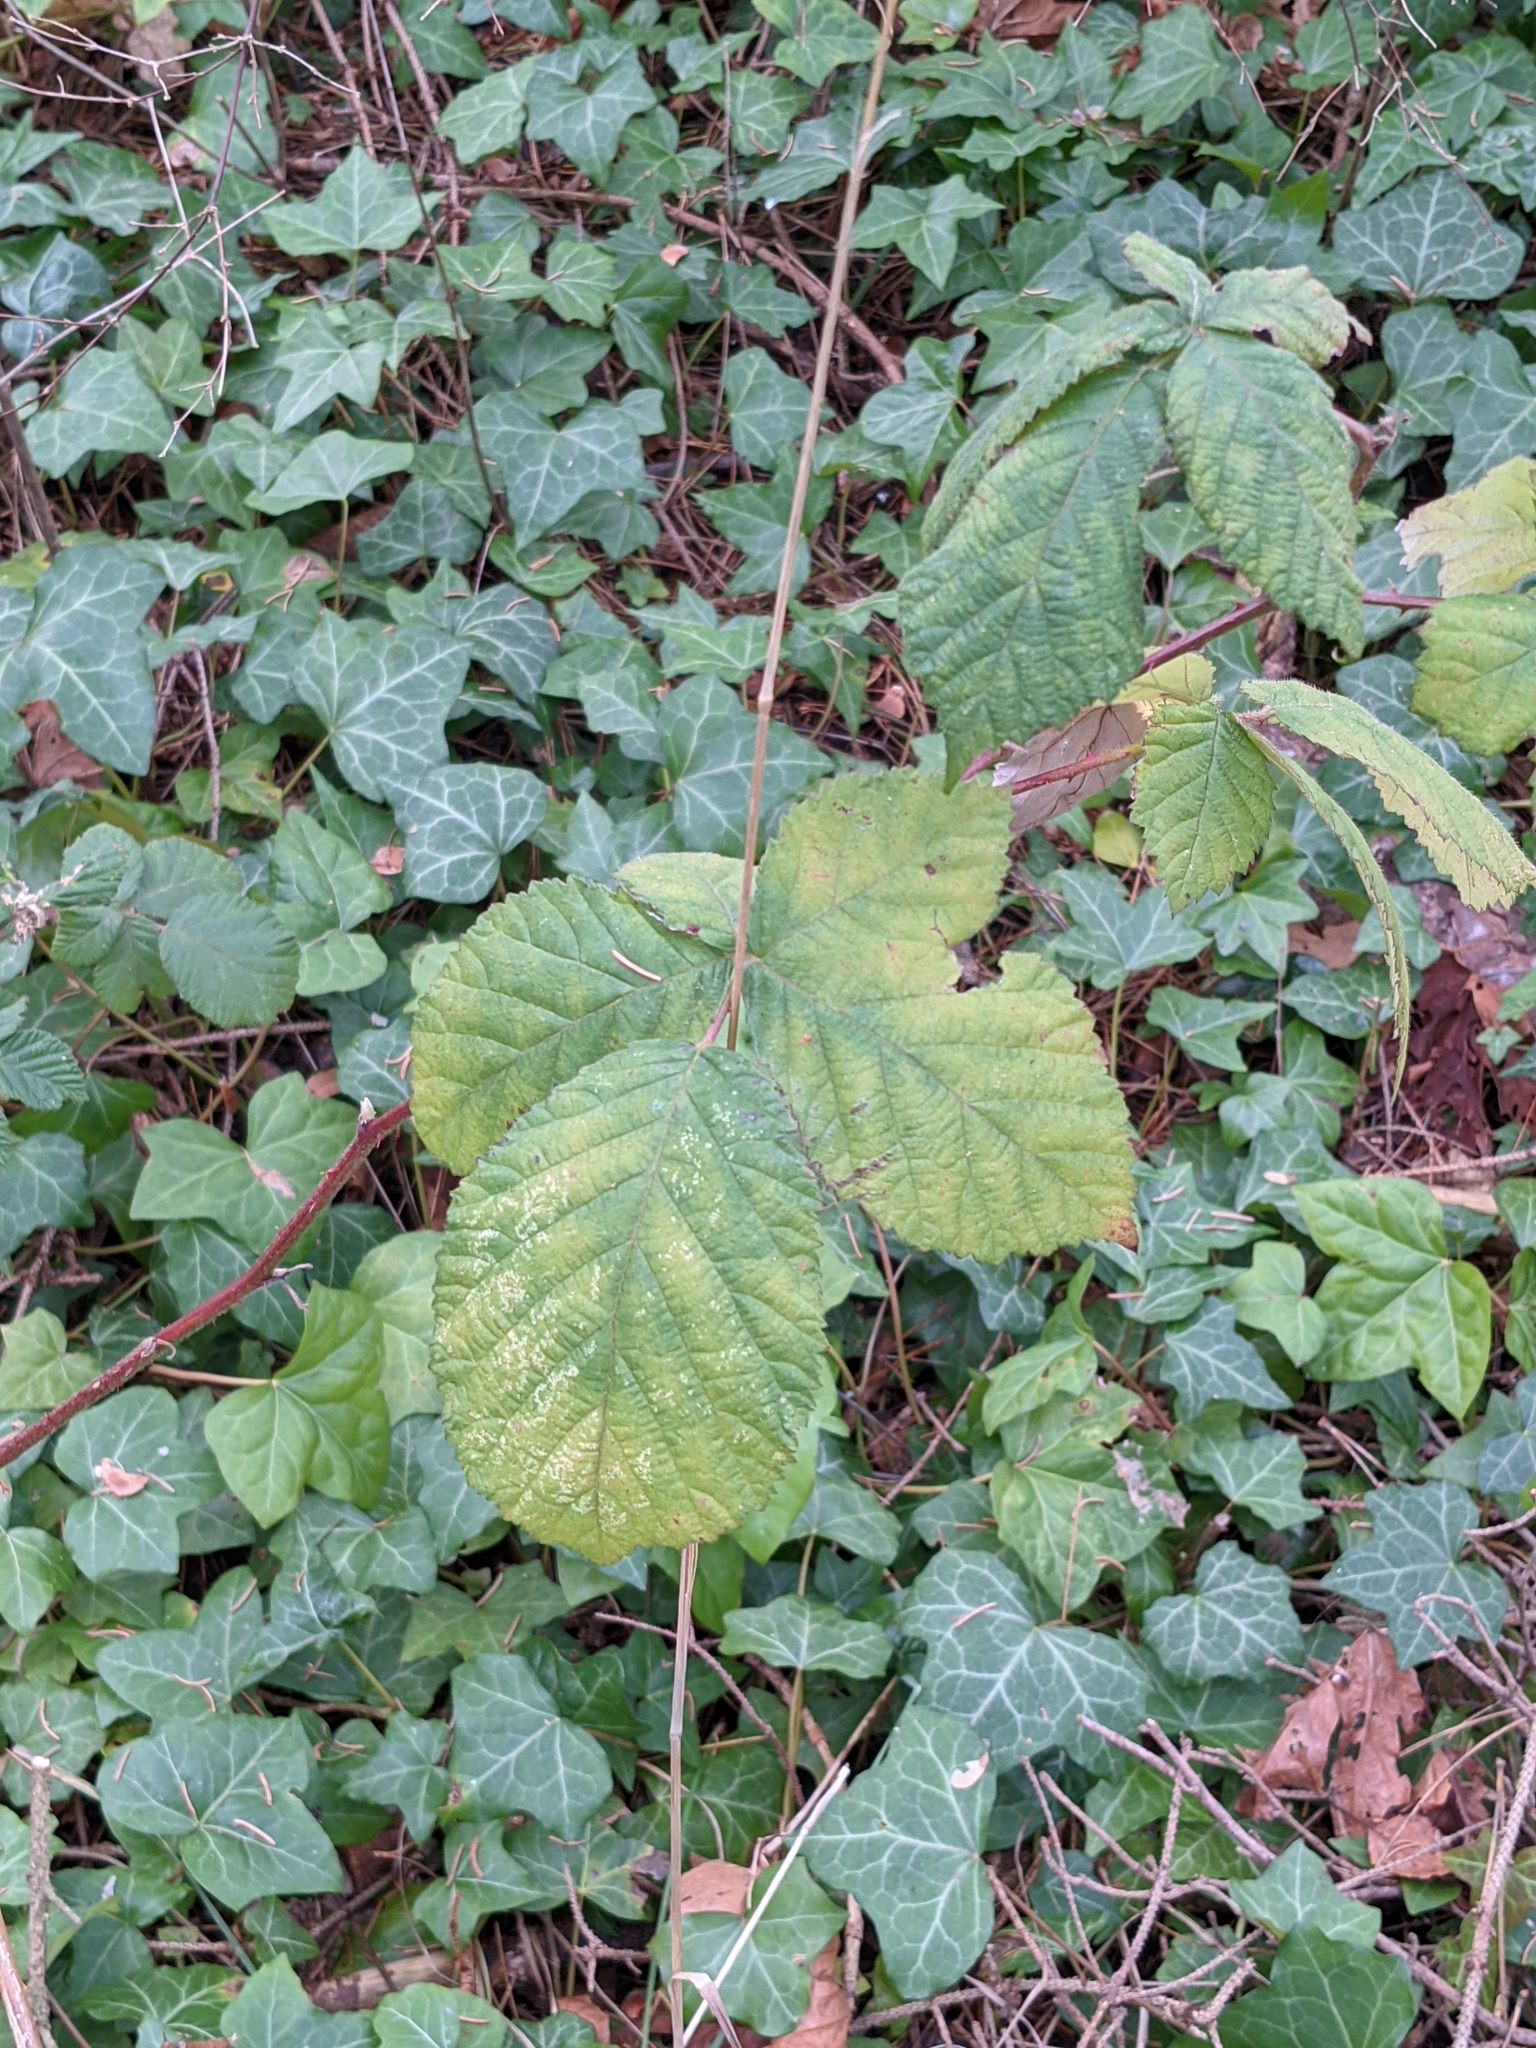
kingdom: Plantae
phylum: Tracheophyta
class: Magnoliopsida
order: Rosales
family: Rosaceae
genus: Rubus
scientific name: Rubus bifrons
